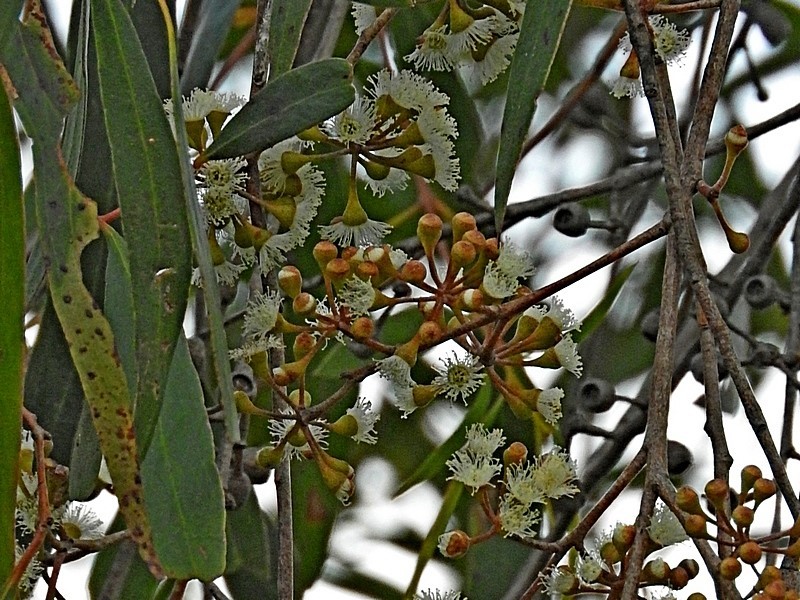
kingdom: Plantae
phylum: Tracheophyta
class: Magnoliopsida
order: Myrtales
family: Myrtaceae
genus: Eucalyptus
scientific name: Eucalyptus elata
